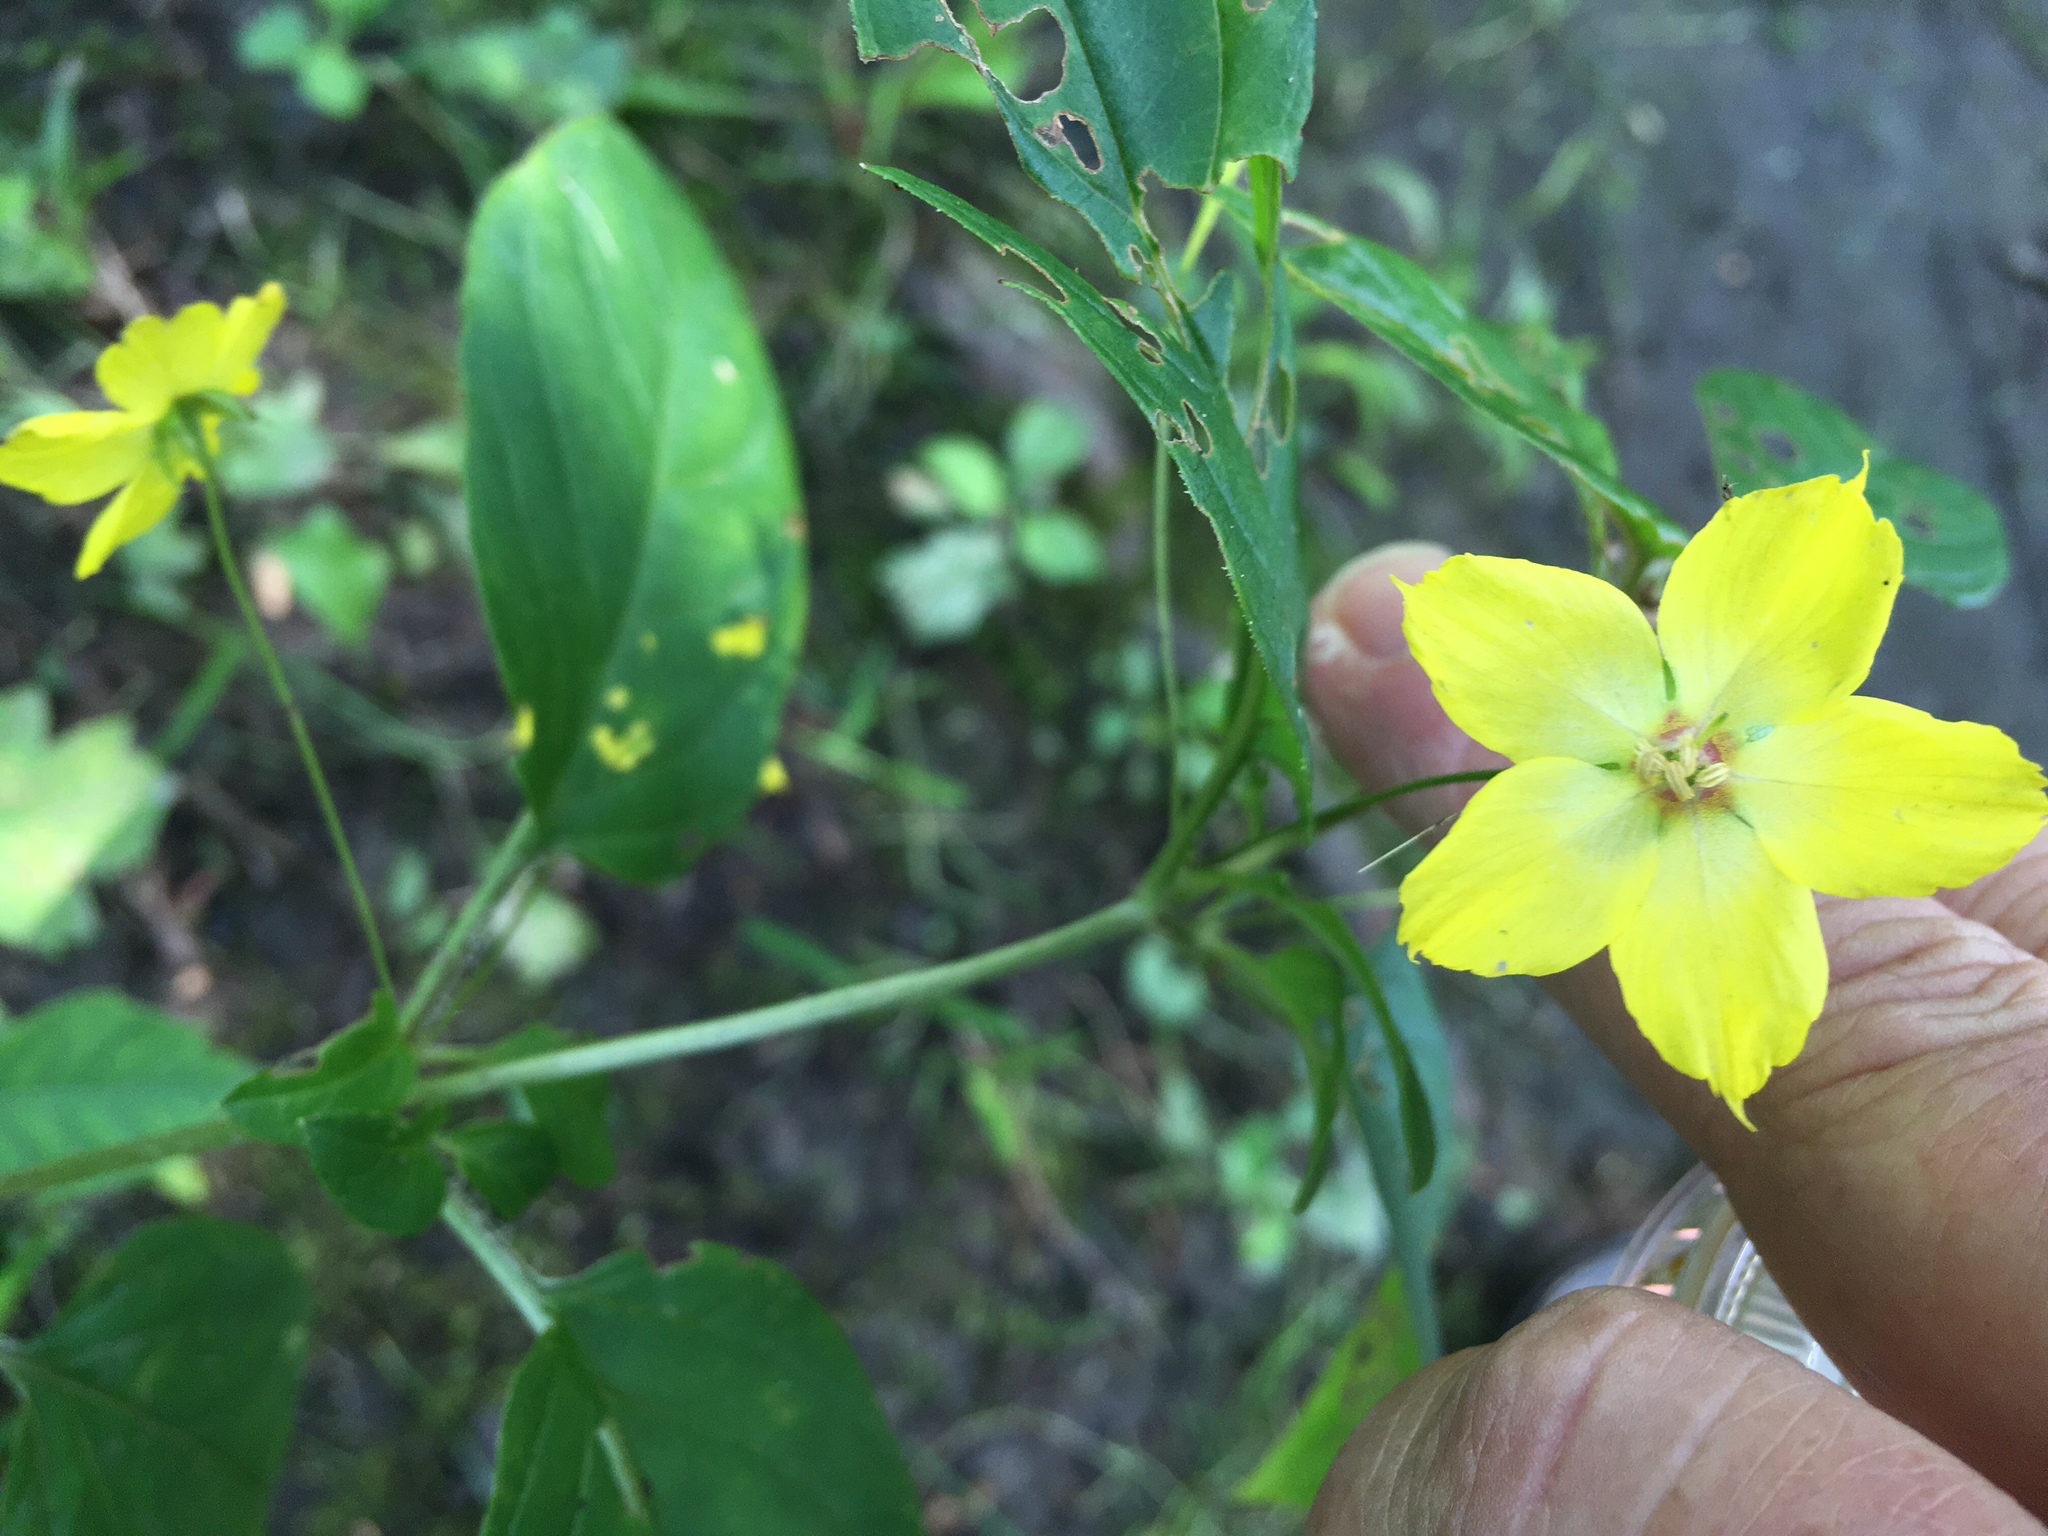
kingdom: Plantae
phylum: Tracheophyta
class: Magnoliopsida
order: Ericales
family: Primulaceae
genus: Lysimachia
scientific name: Lysimachia ciliata
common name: Fringed loosestrife
